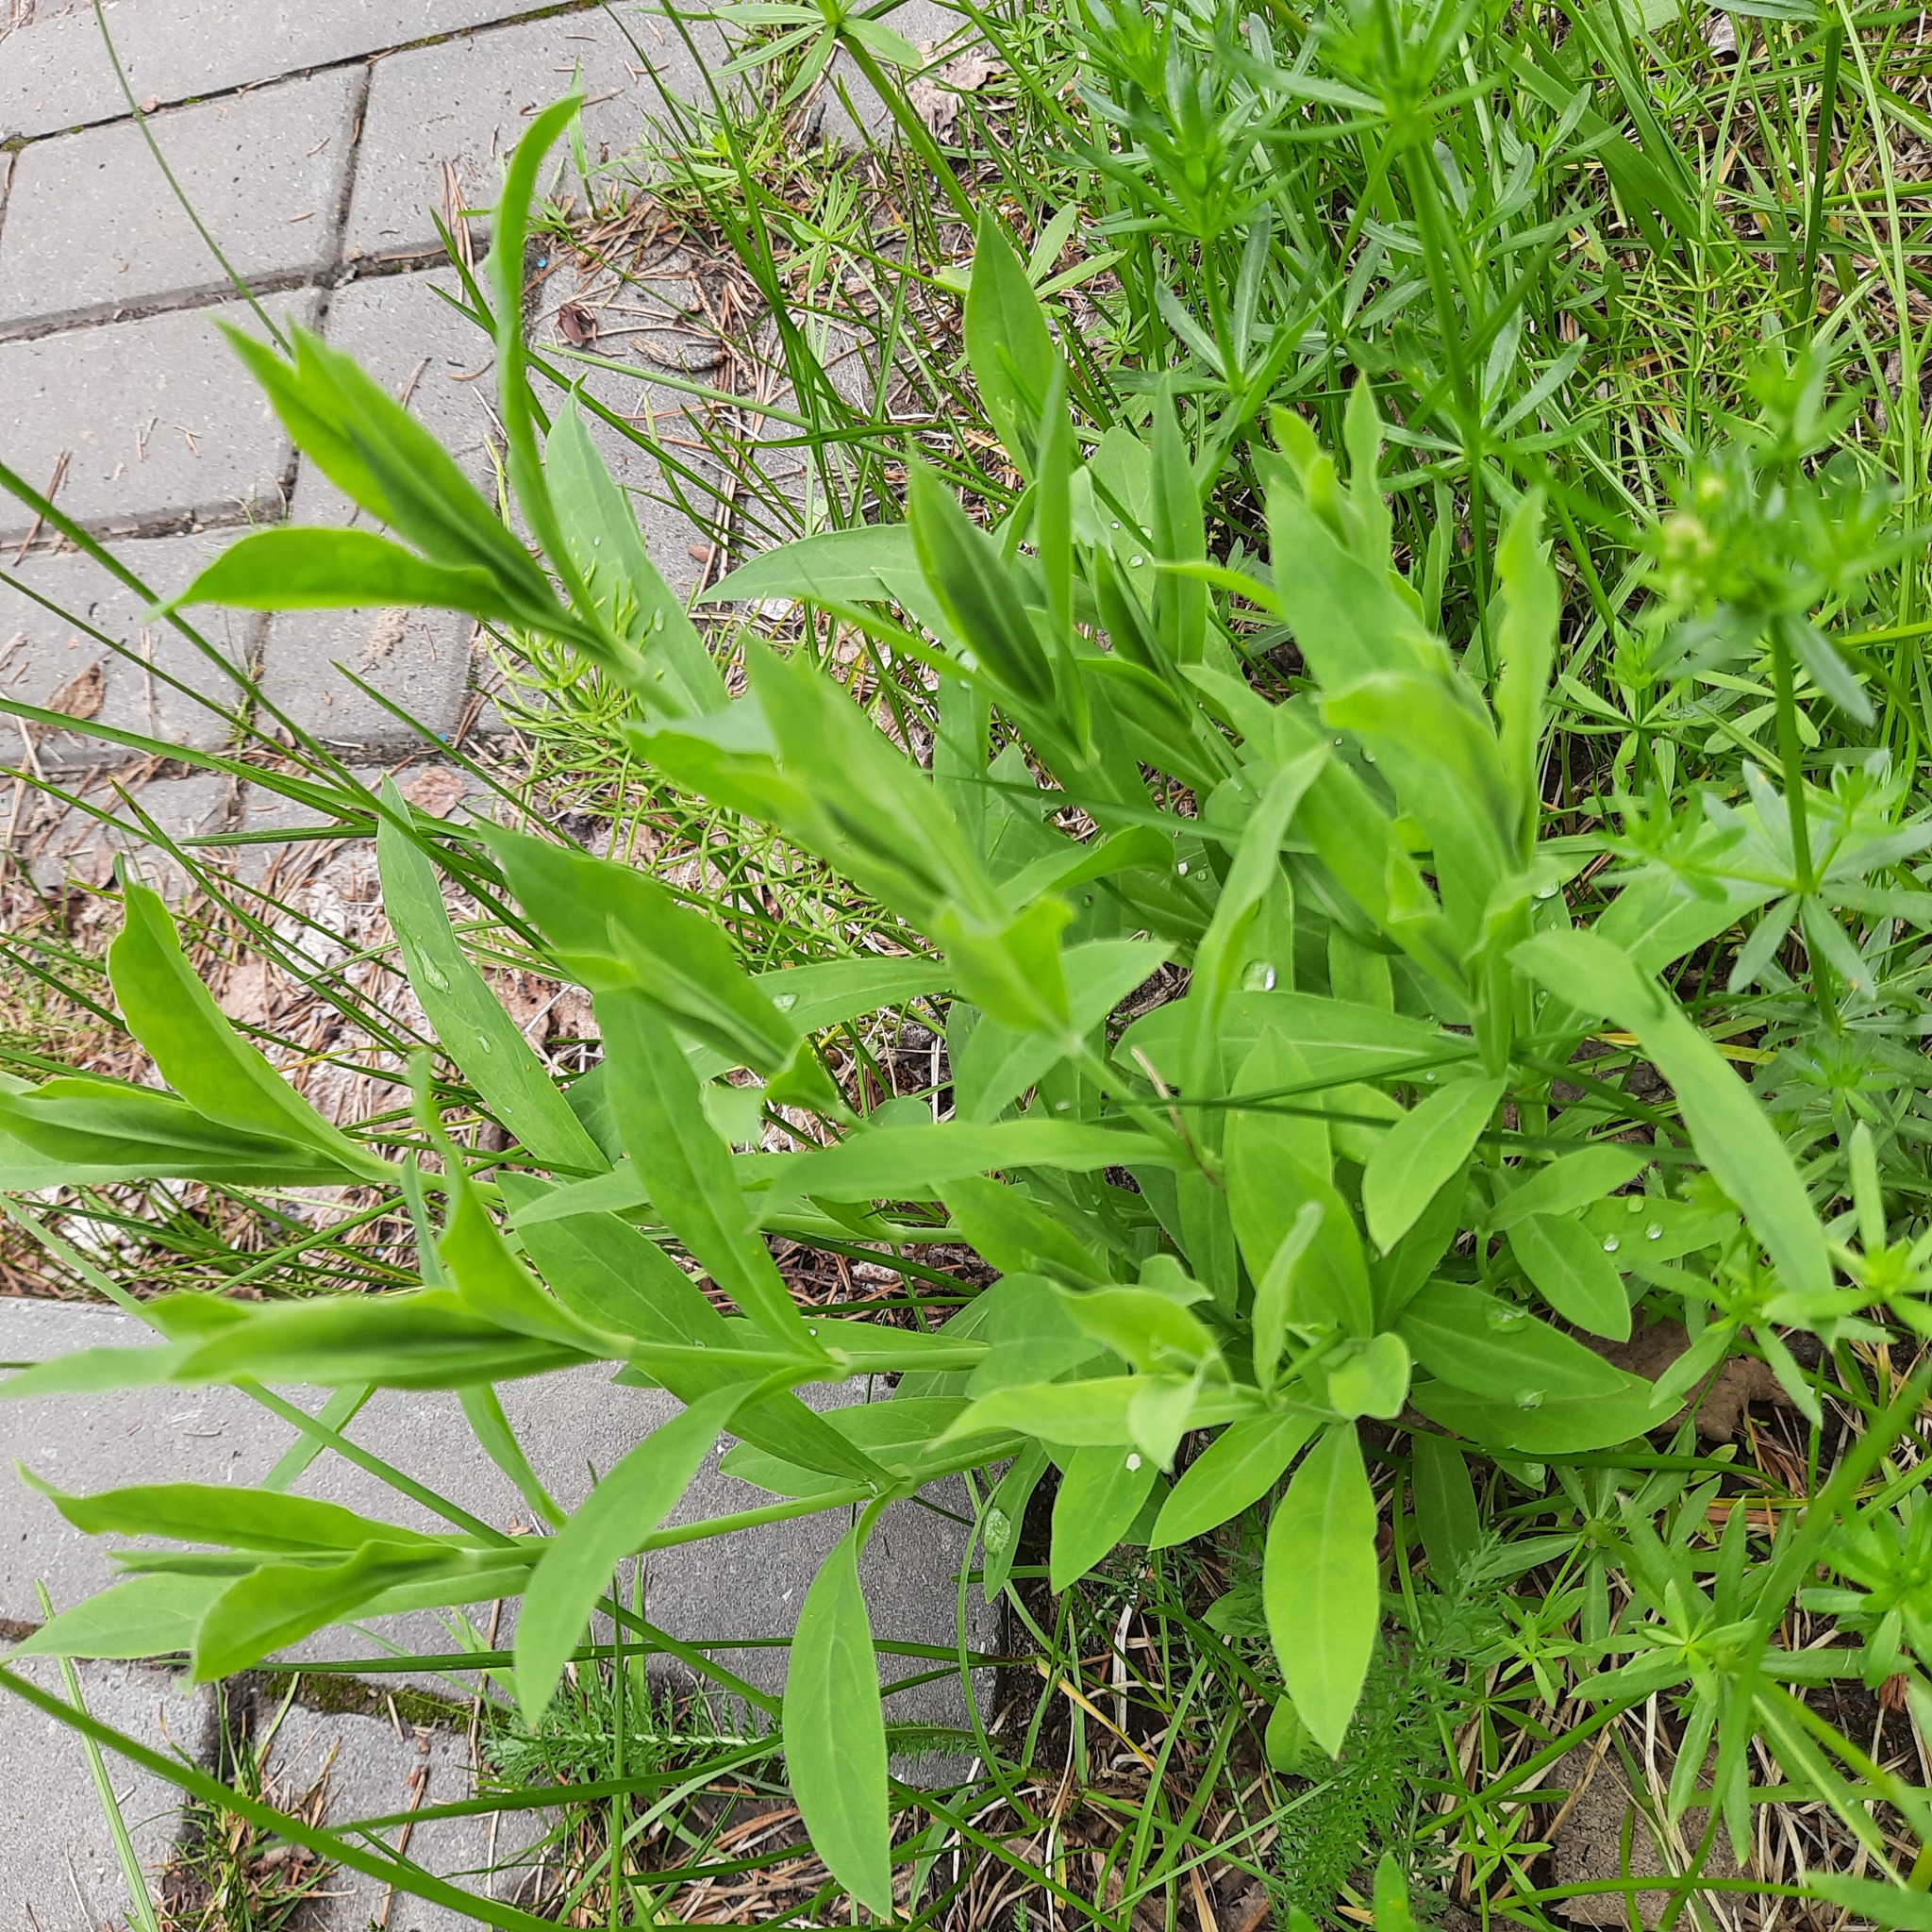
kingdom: Plantae
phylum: Tracheophyta
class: Magnoliopsida
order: Caryophyllales
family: Caryophyllaceae
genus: Silene
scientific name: Silene vulgaris
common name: Bladder campion
